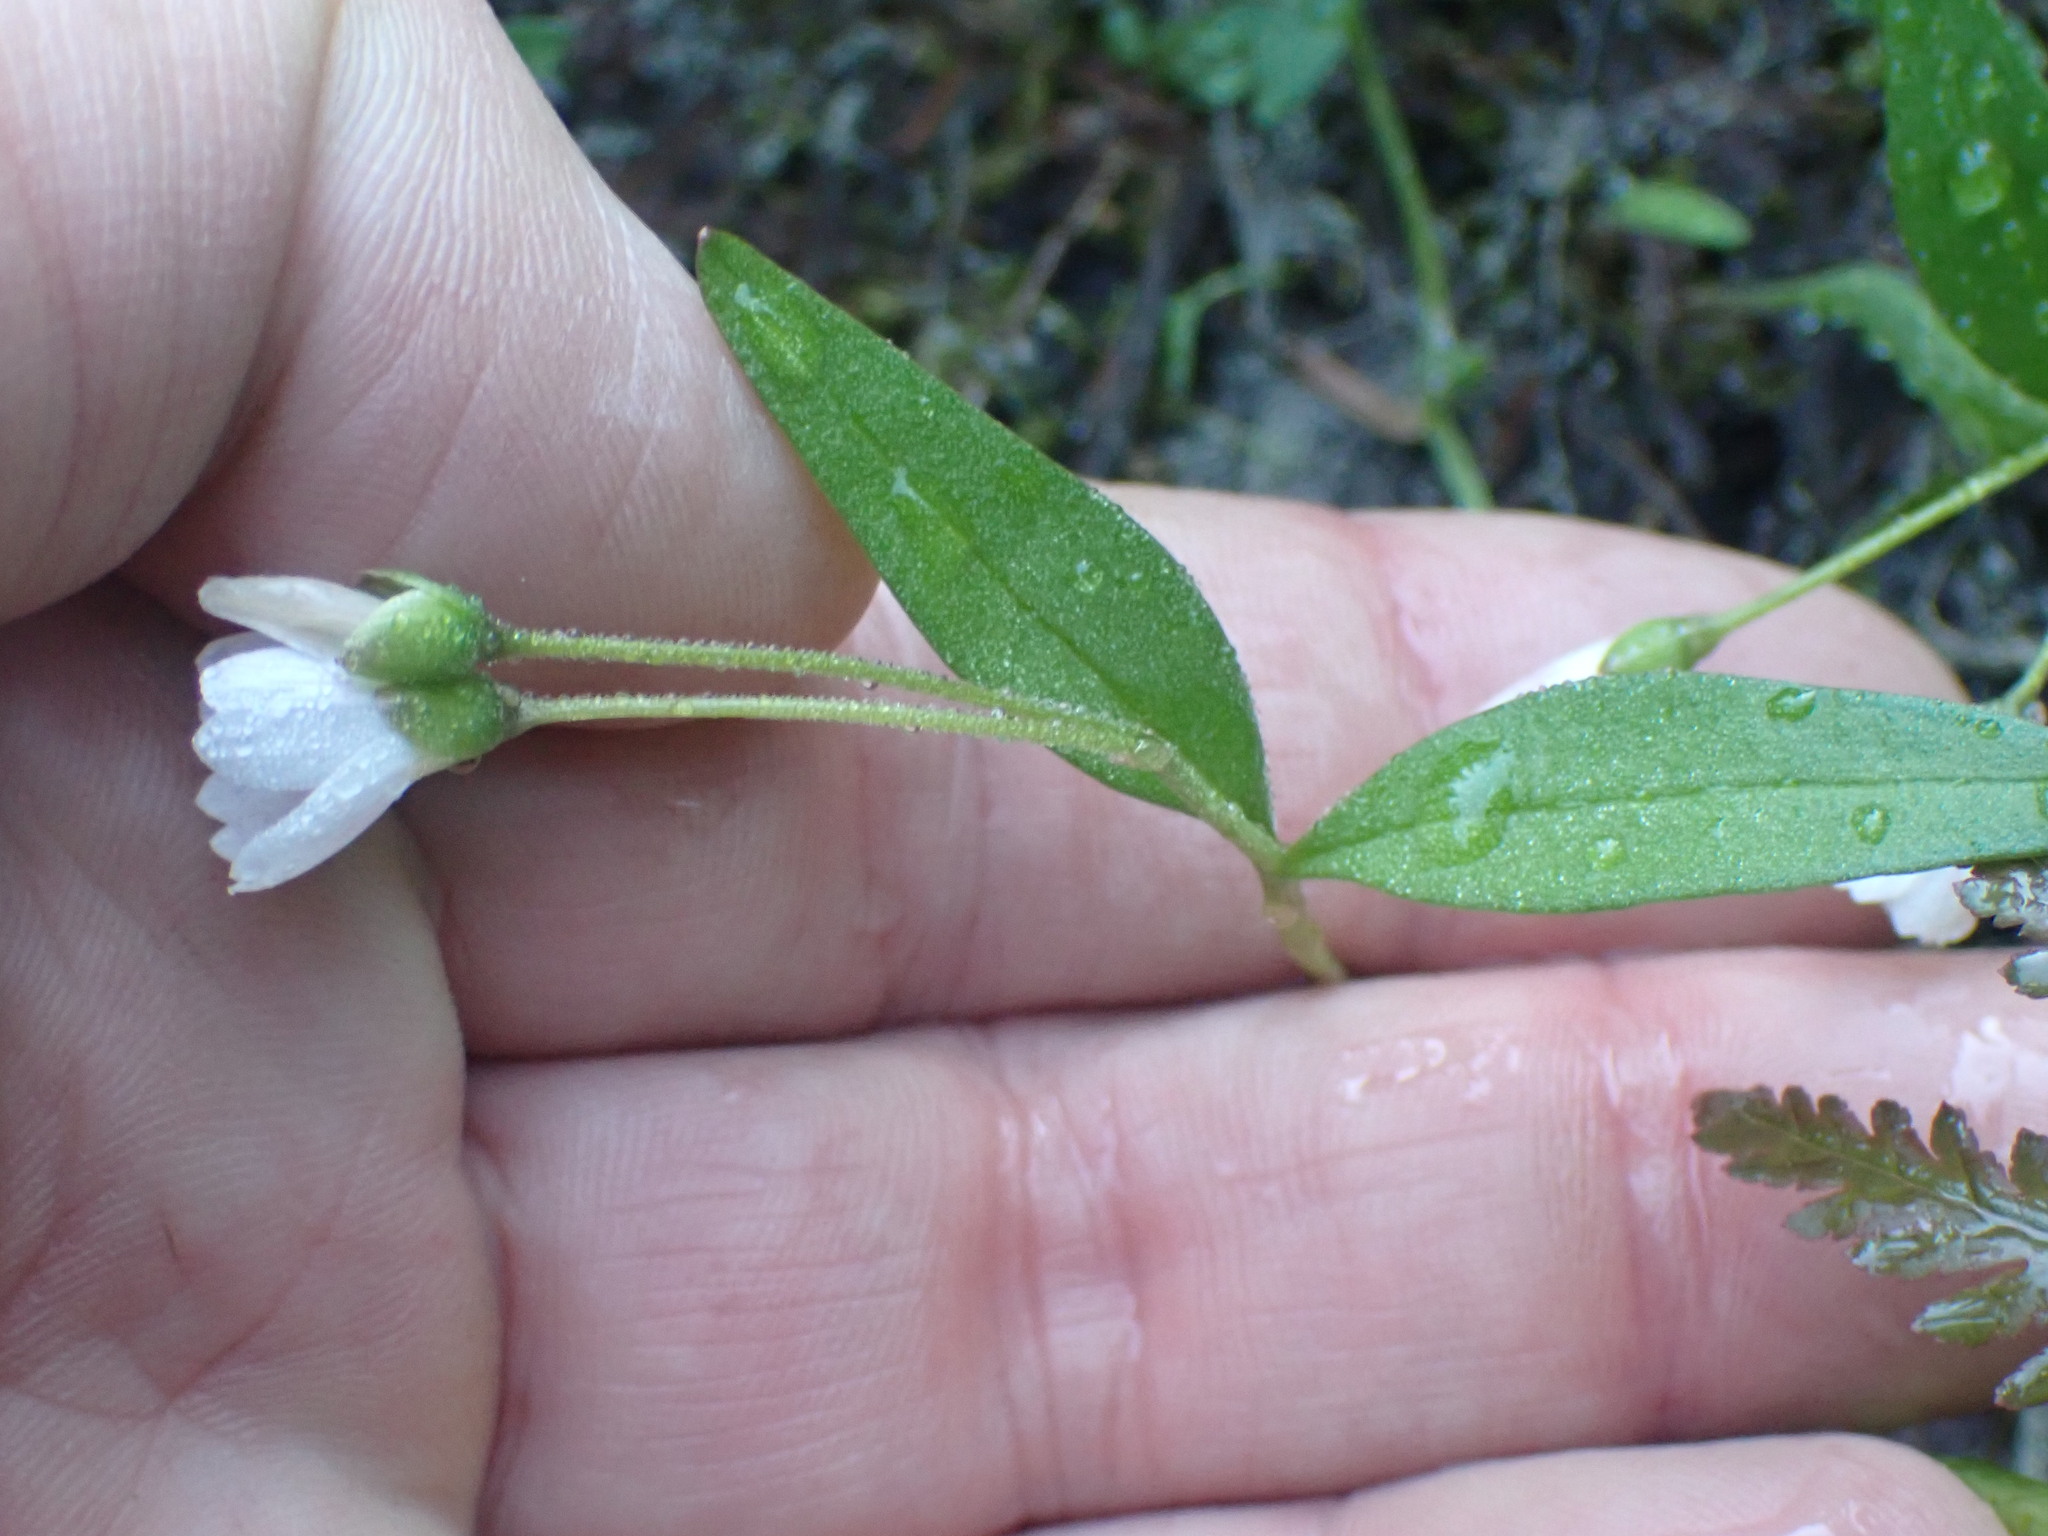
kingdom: Plantae
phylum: Tracheophyta
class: Magnoliopsida
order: Caryophyllales
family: Montiaceae
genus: Claytonia
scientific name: Claytonia lanceolata
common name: Western spring-beauty
